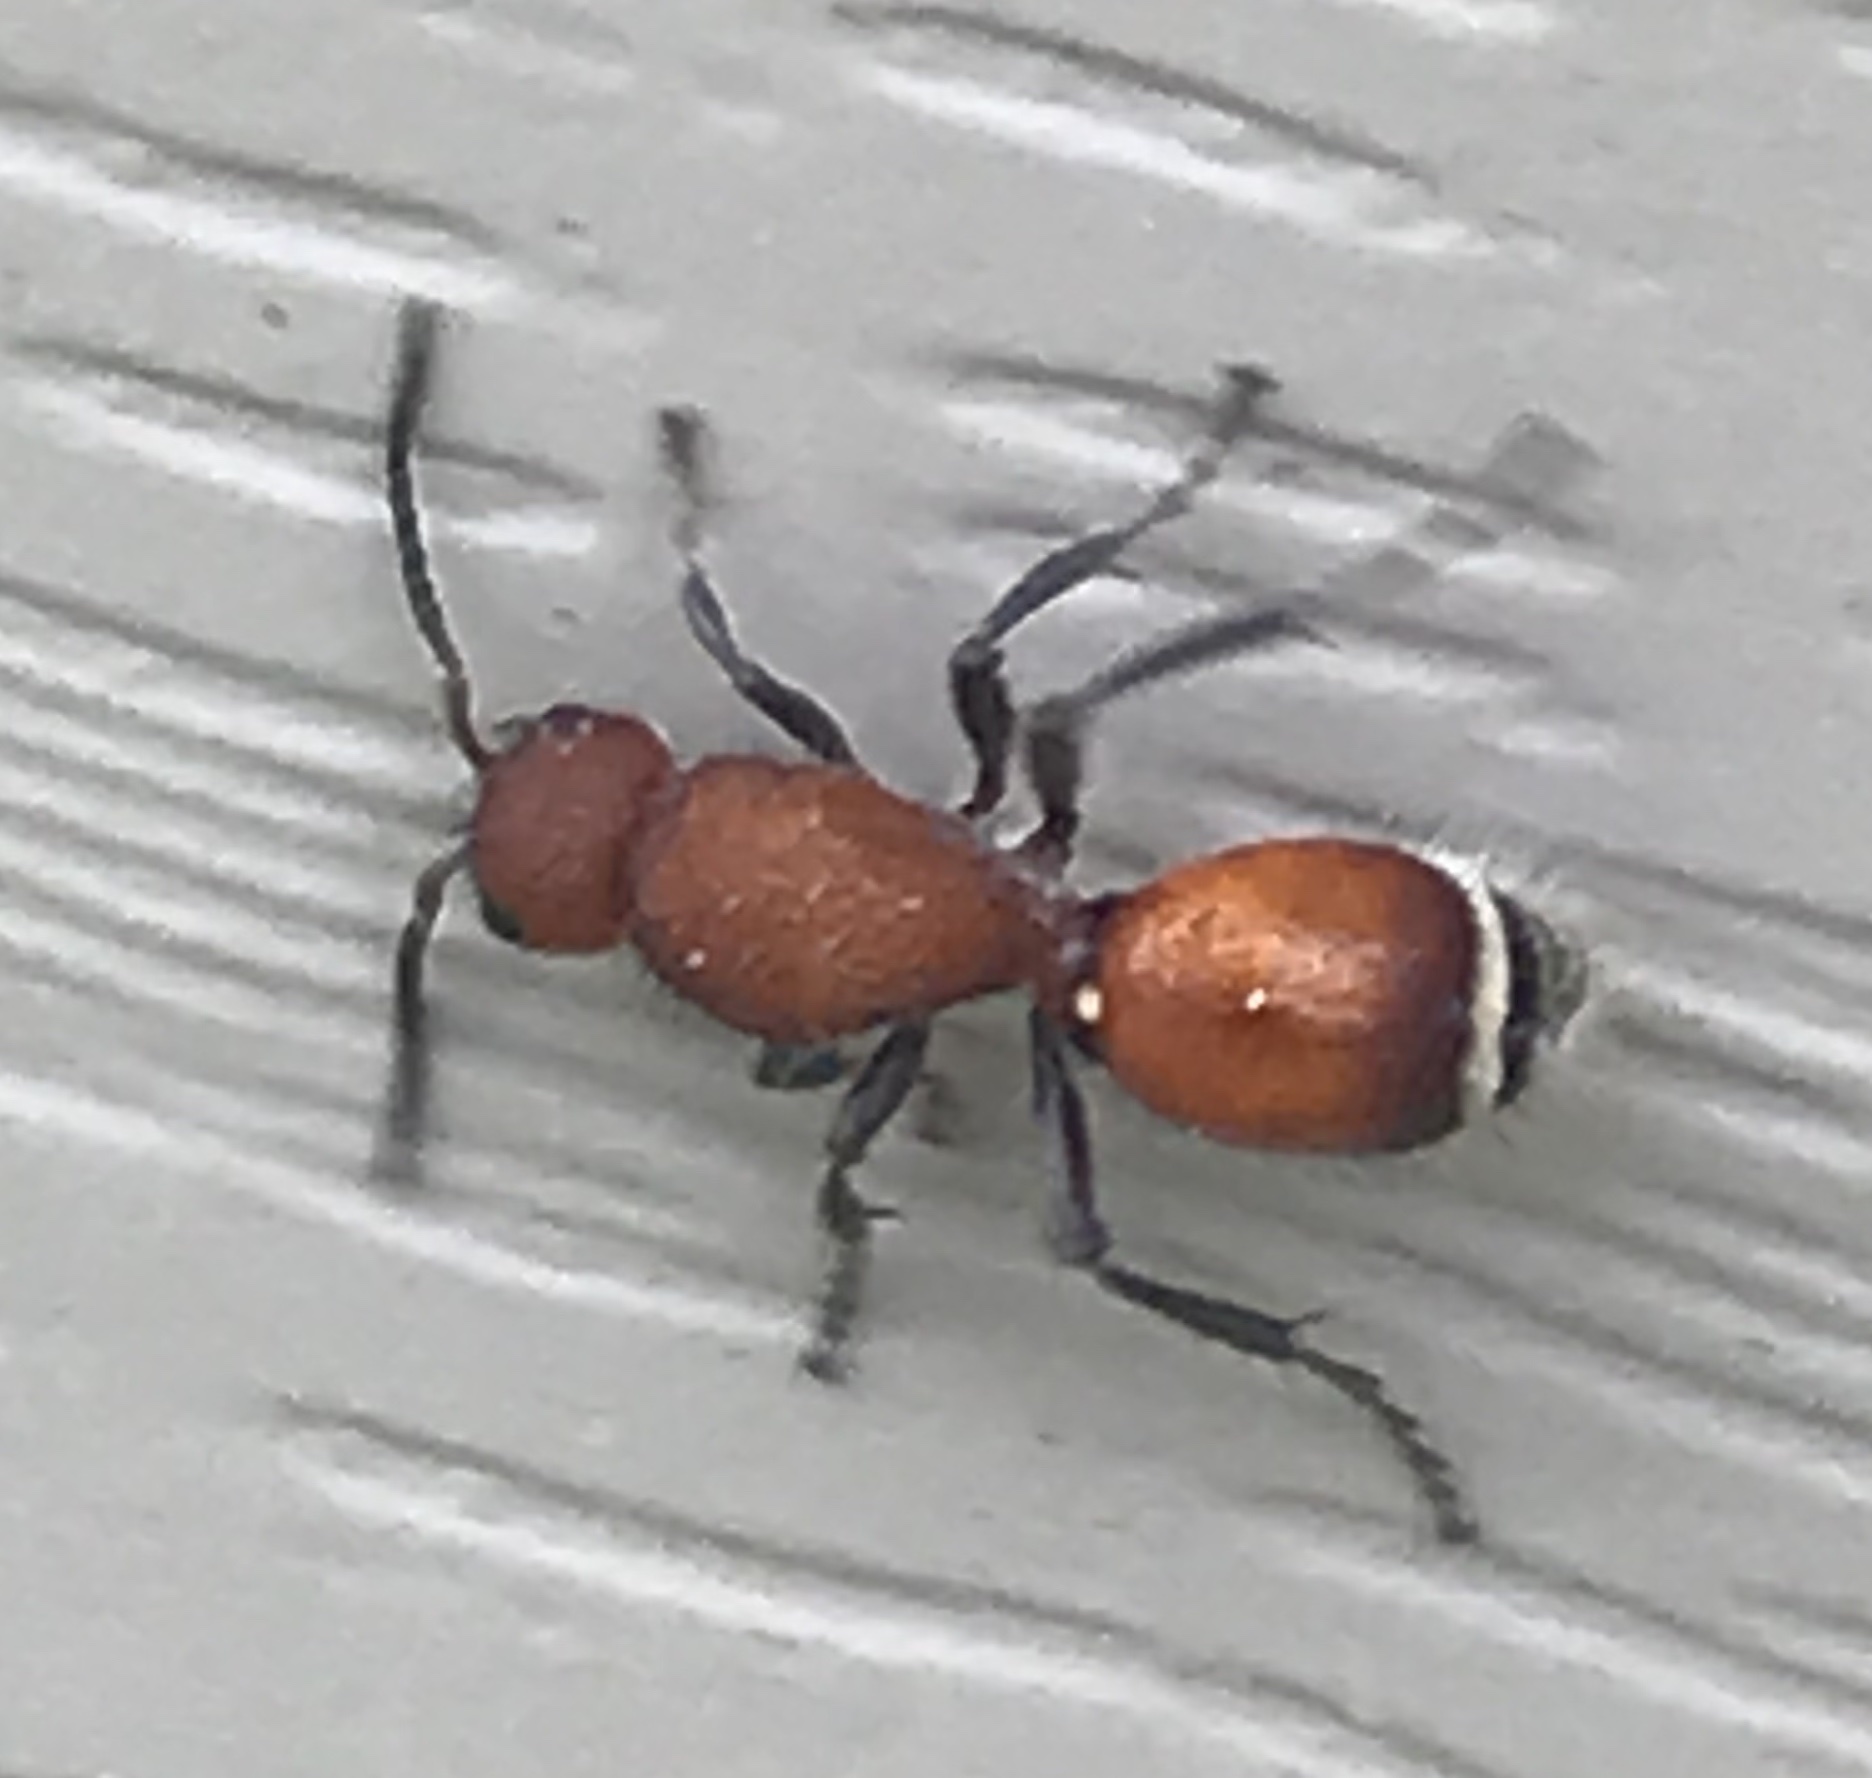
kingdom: Animalia
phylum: Arthropoda
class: Insecta
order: Hymenoptera
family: Mutillidae
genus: Sphaeropthalma
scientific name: Sphaeropthalma
